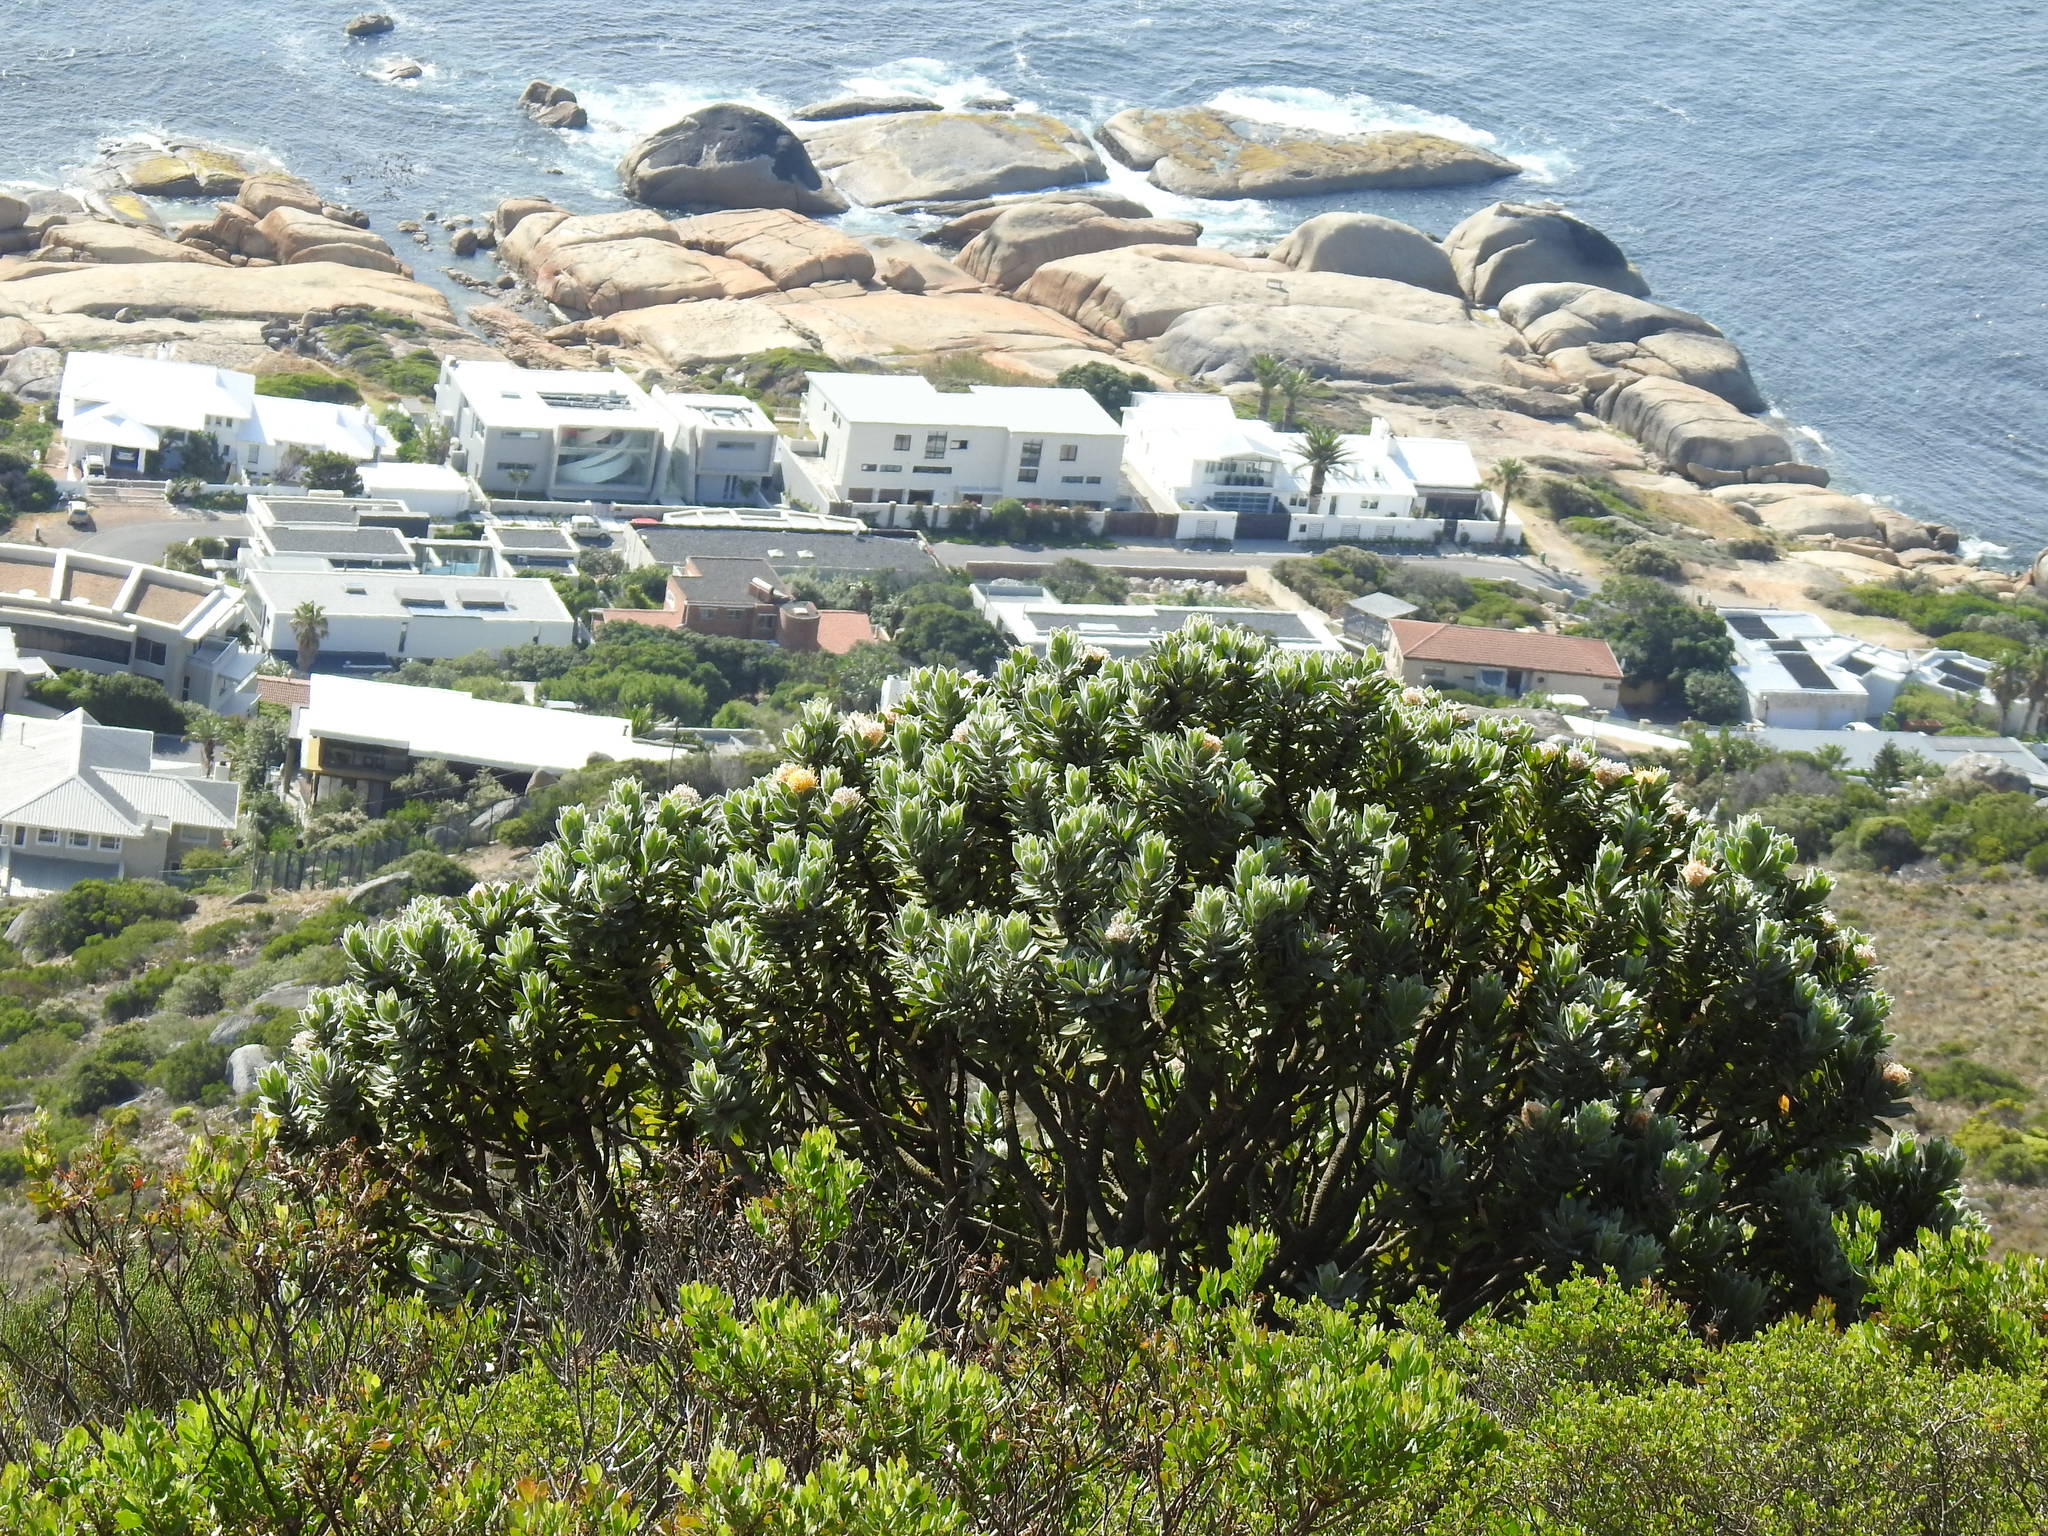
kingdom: Plantae
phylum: Tracheophyta
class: Magnoliopsida
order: Proteales
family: Proteaceae
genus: Leucospermum
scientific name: Leucospermum conocarpodendron
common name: Tree pincushion
